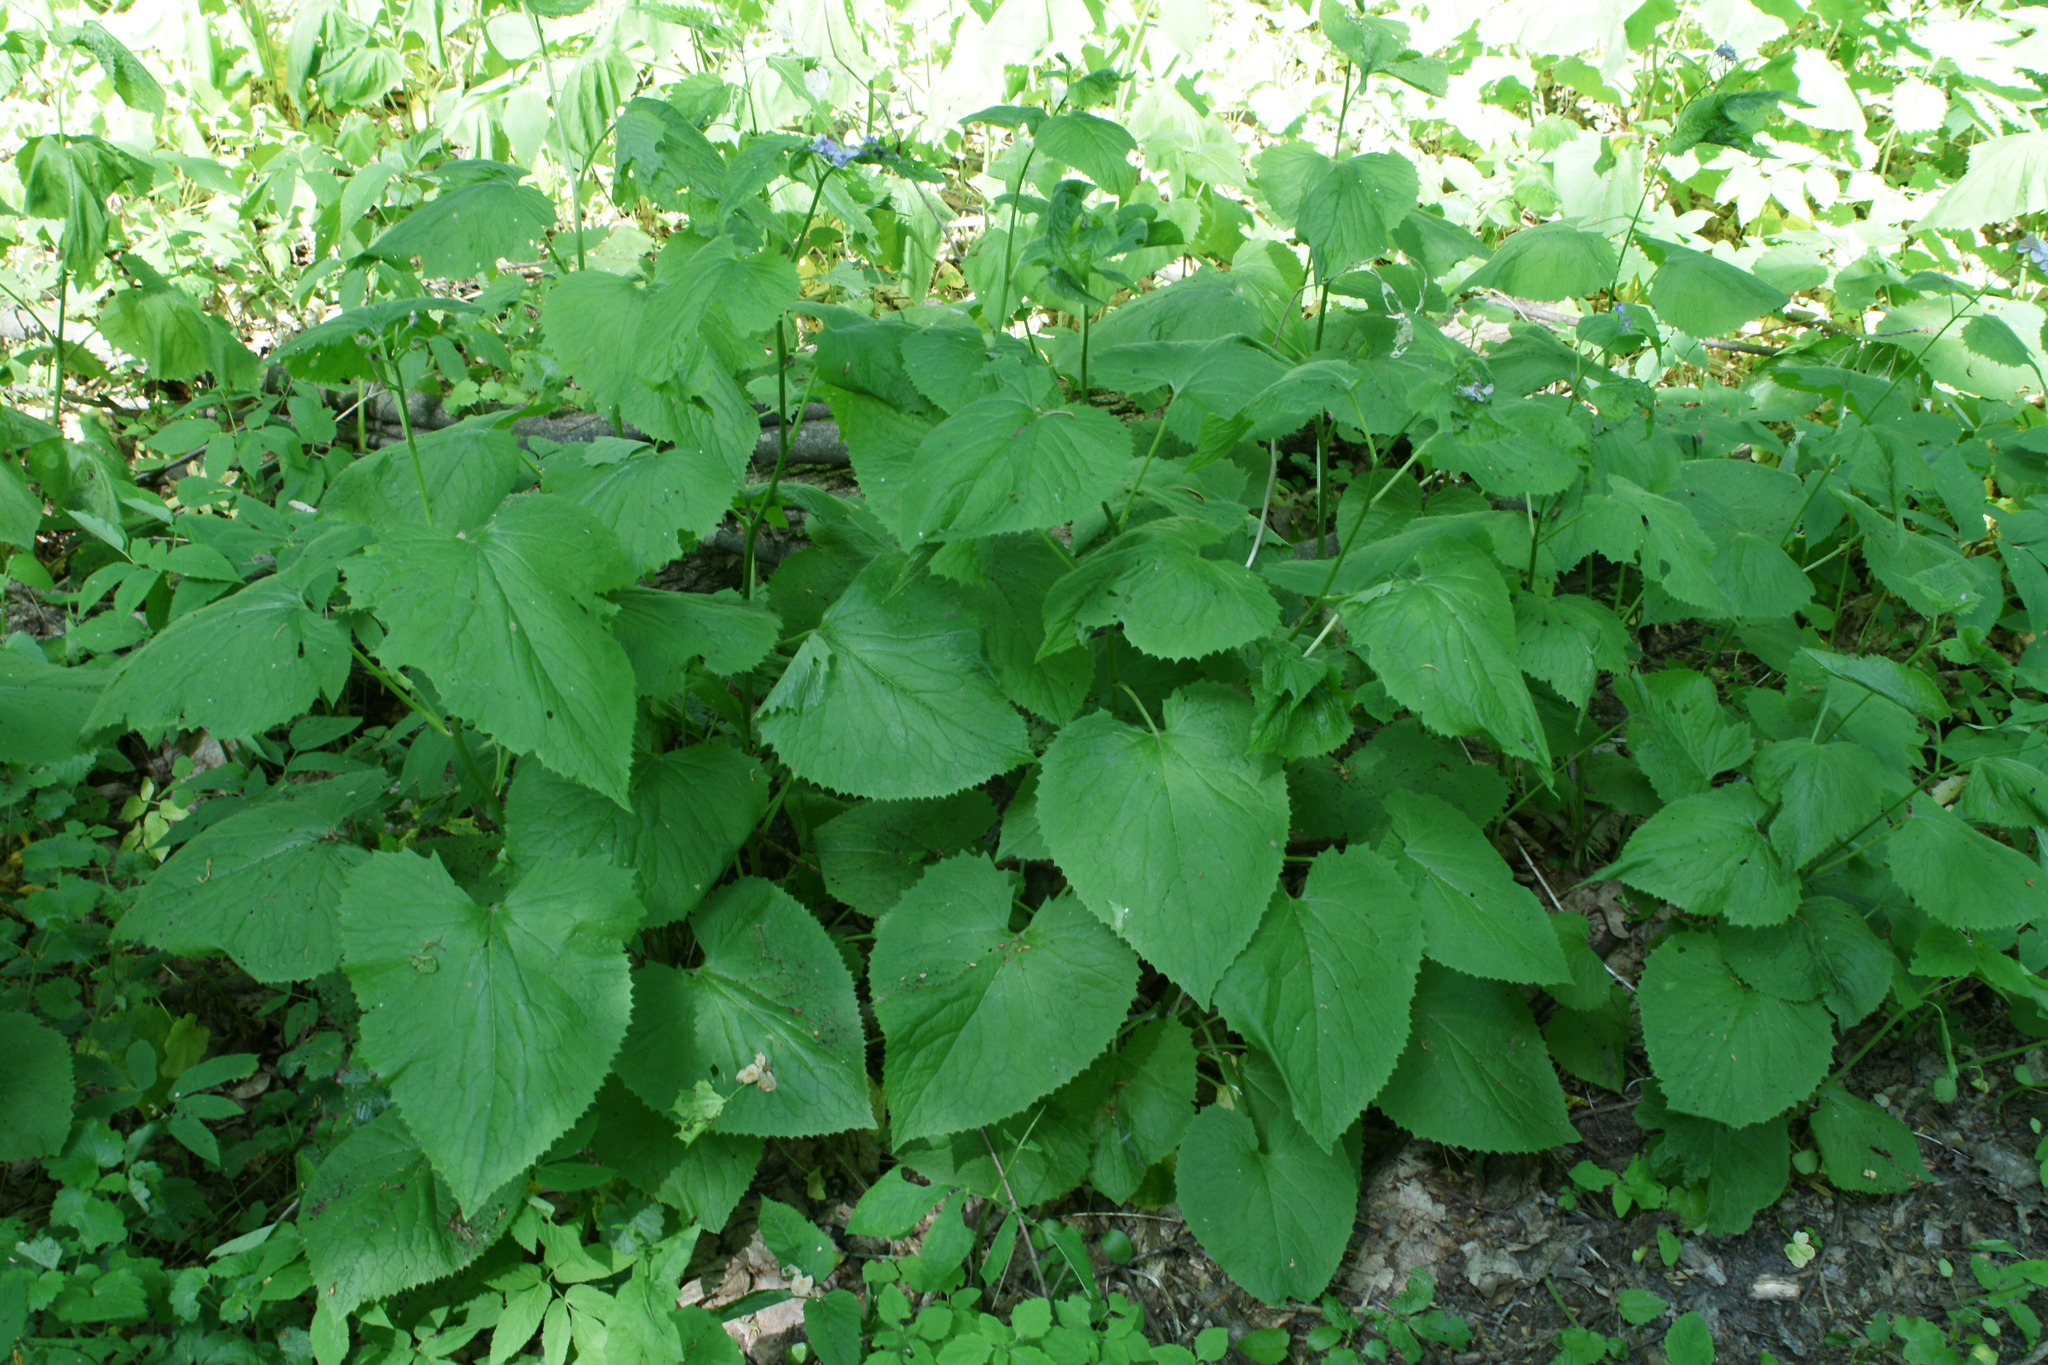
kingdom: Plantae
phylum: Tracheophyta
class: Magnoliopsida
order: Brassicales
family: Brassicaceae
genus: Lunaria
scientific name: Lunaria rediviva
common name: Perennial honesty
